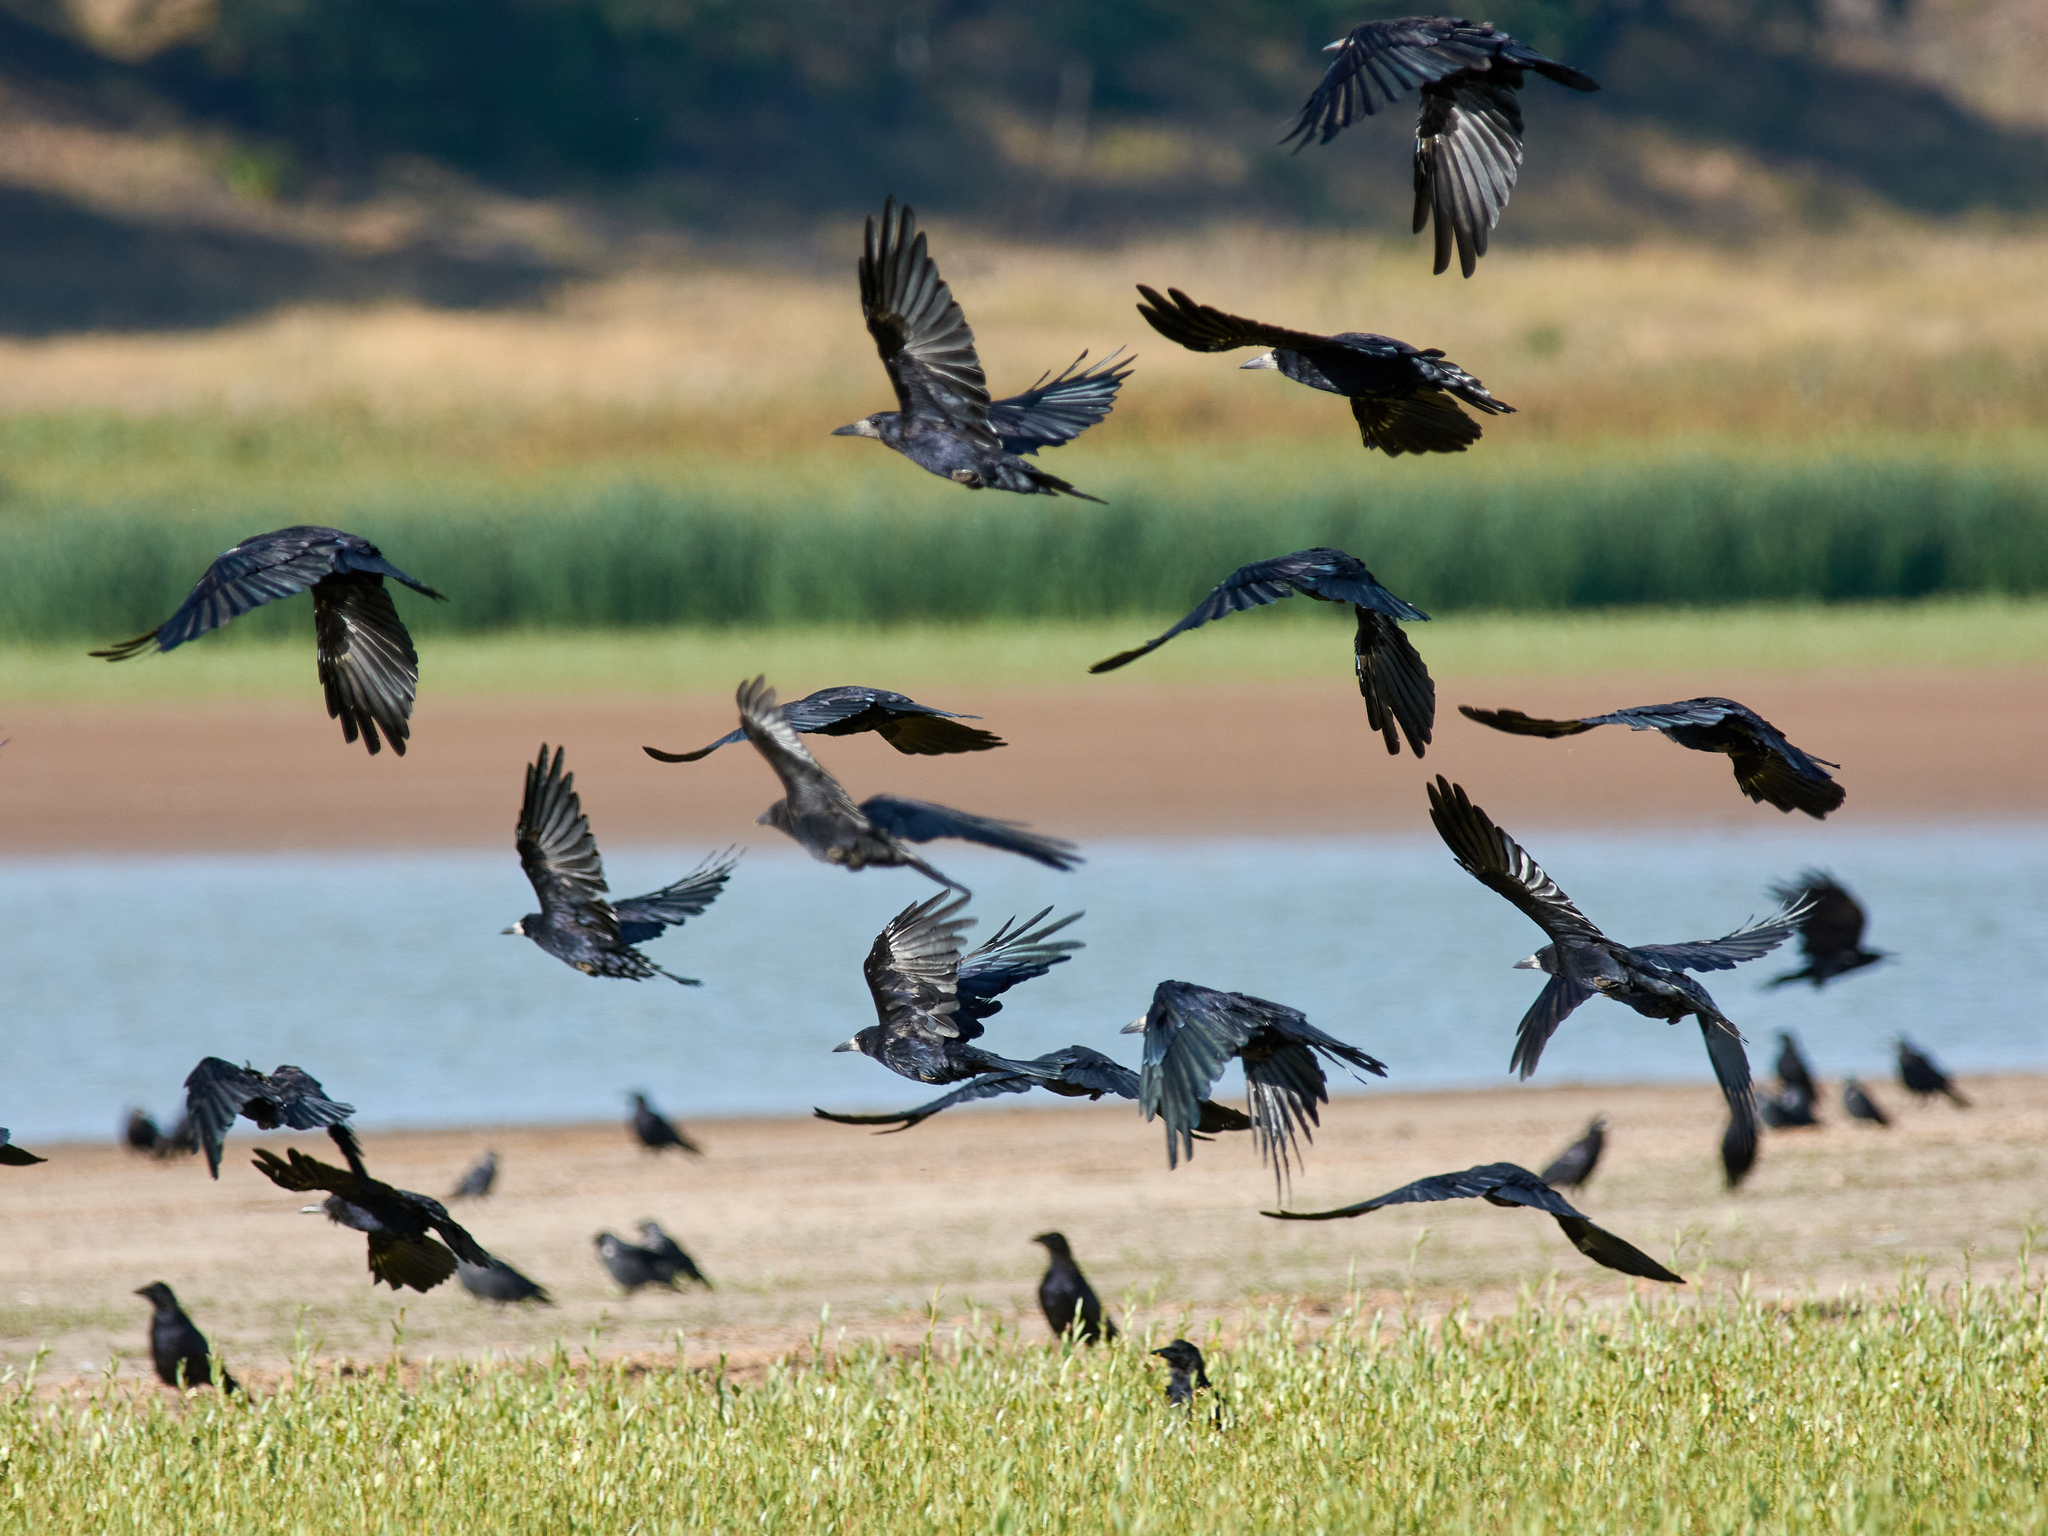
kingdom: Animalia
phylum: Chordata
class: Aves
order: Passeriformes
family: Corvidae
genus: Corvus
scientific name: Corvus frugilegus
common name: Rook
